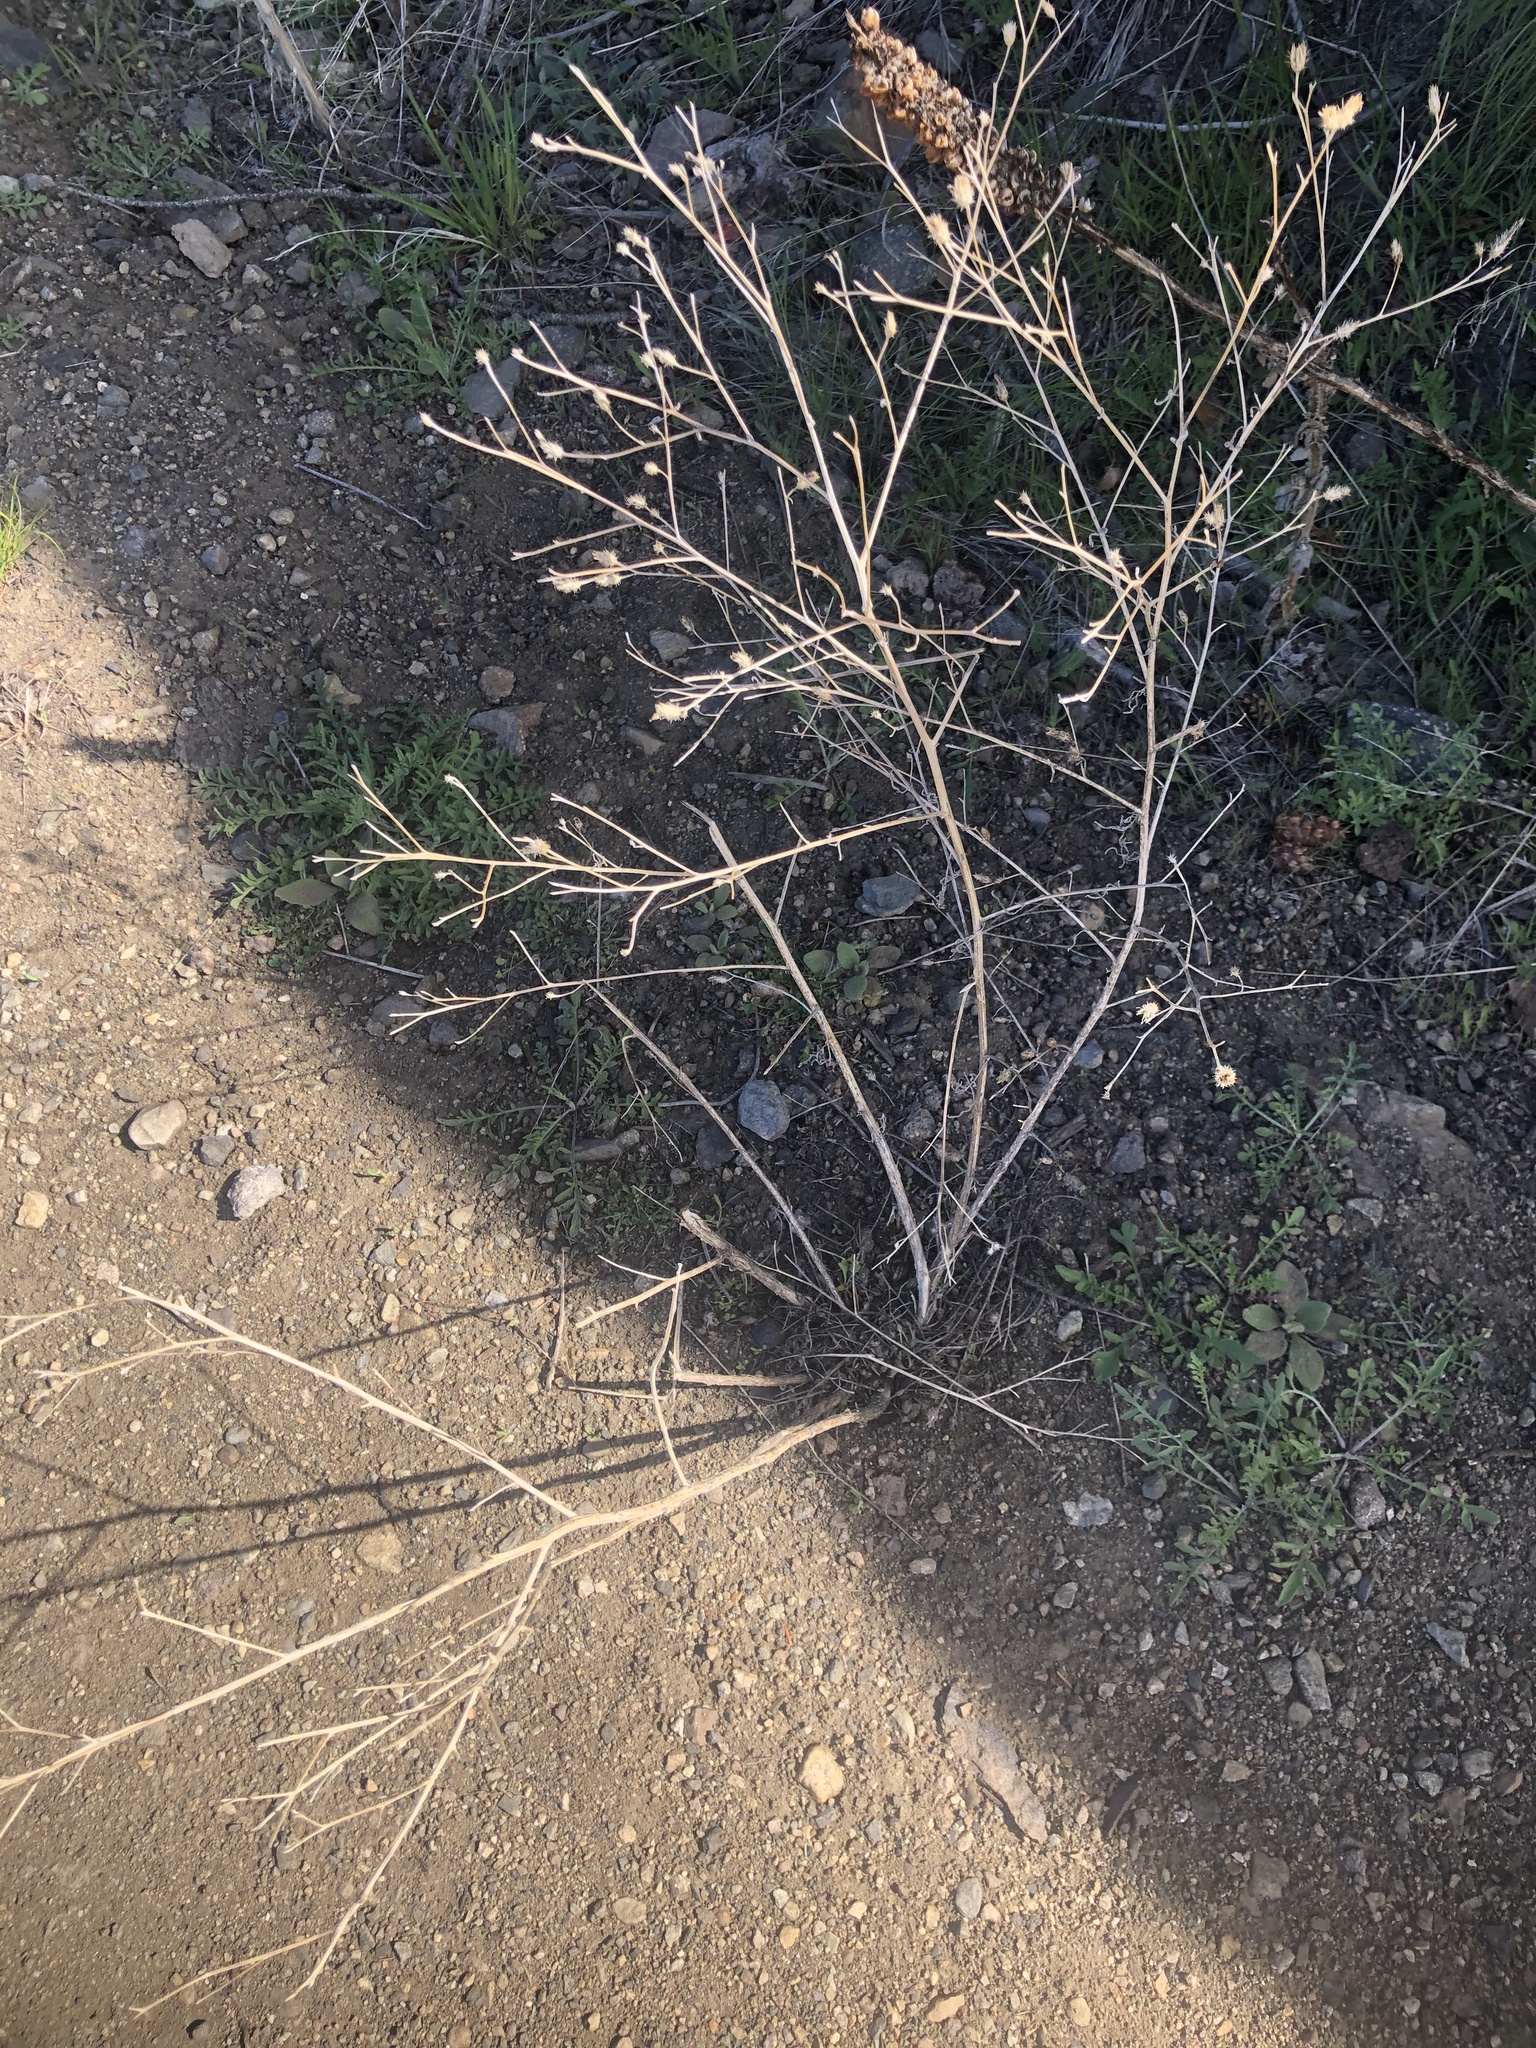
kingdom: Plantae
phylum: Tracheophyta
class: Magnoliopsida
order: Asterales
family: Asteraceae
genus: Centaurea
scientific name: Centaurea diffusa
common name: Diffuse knapweed
